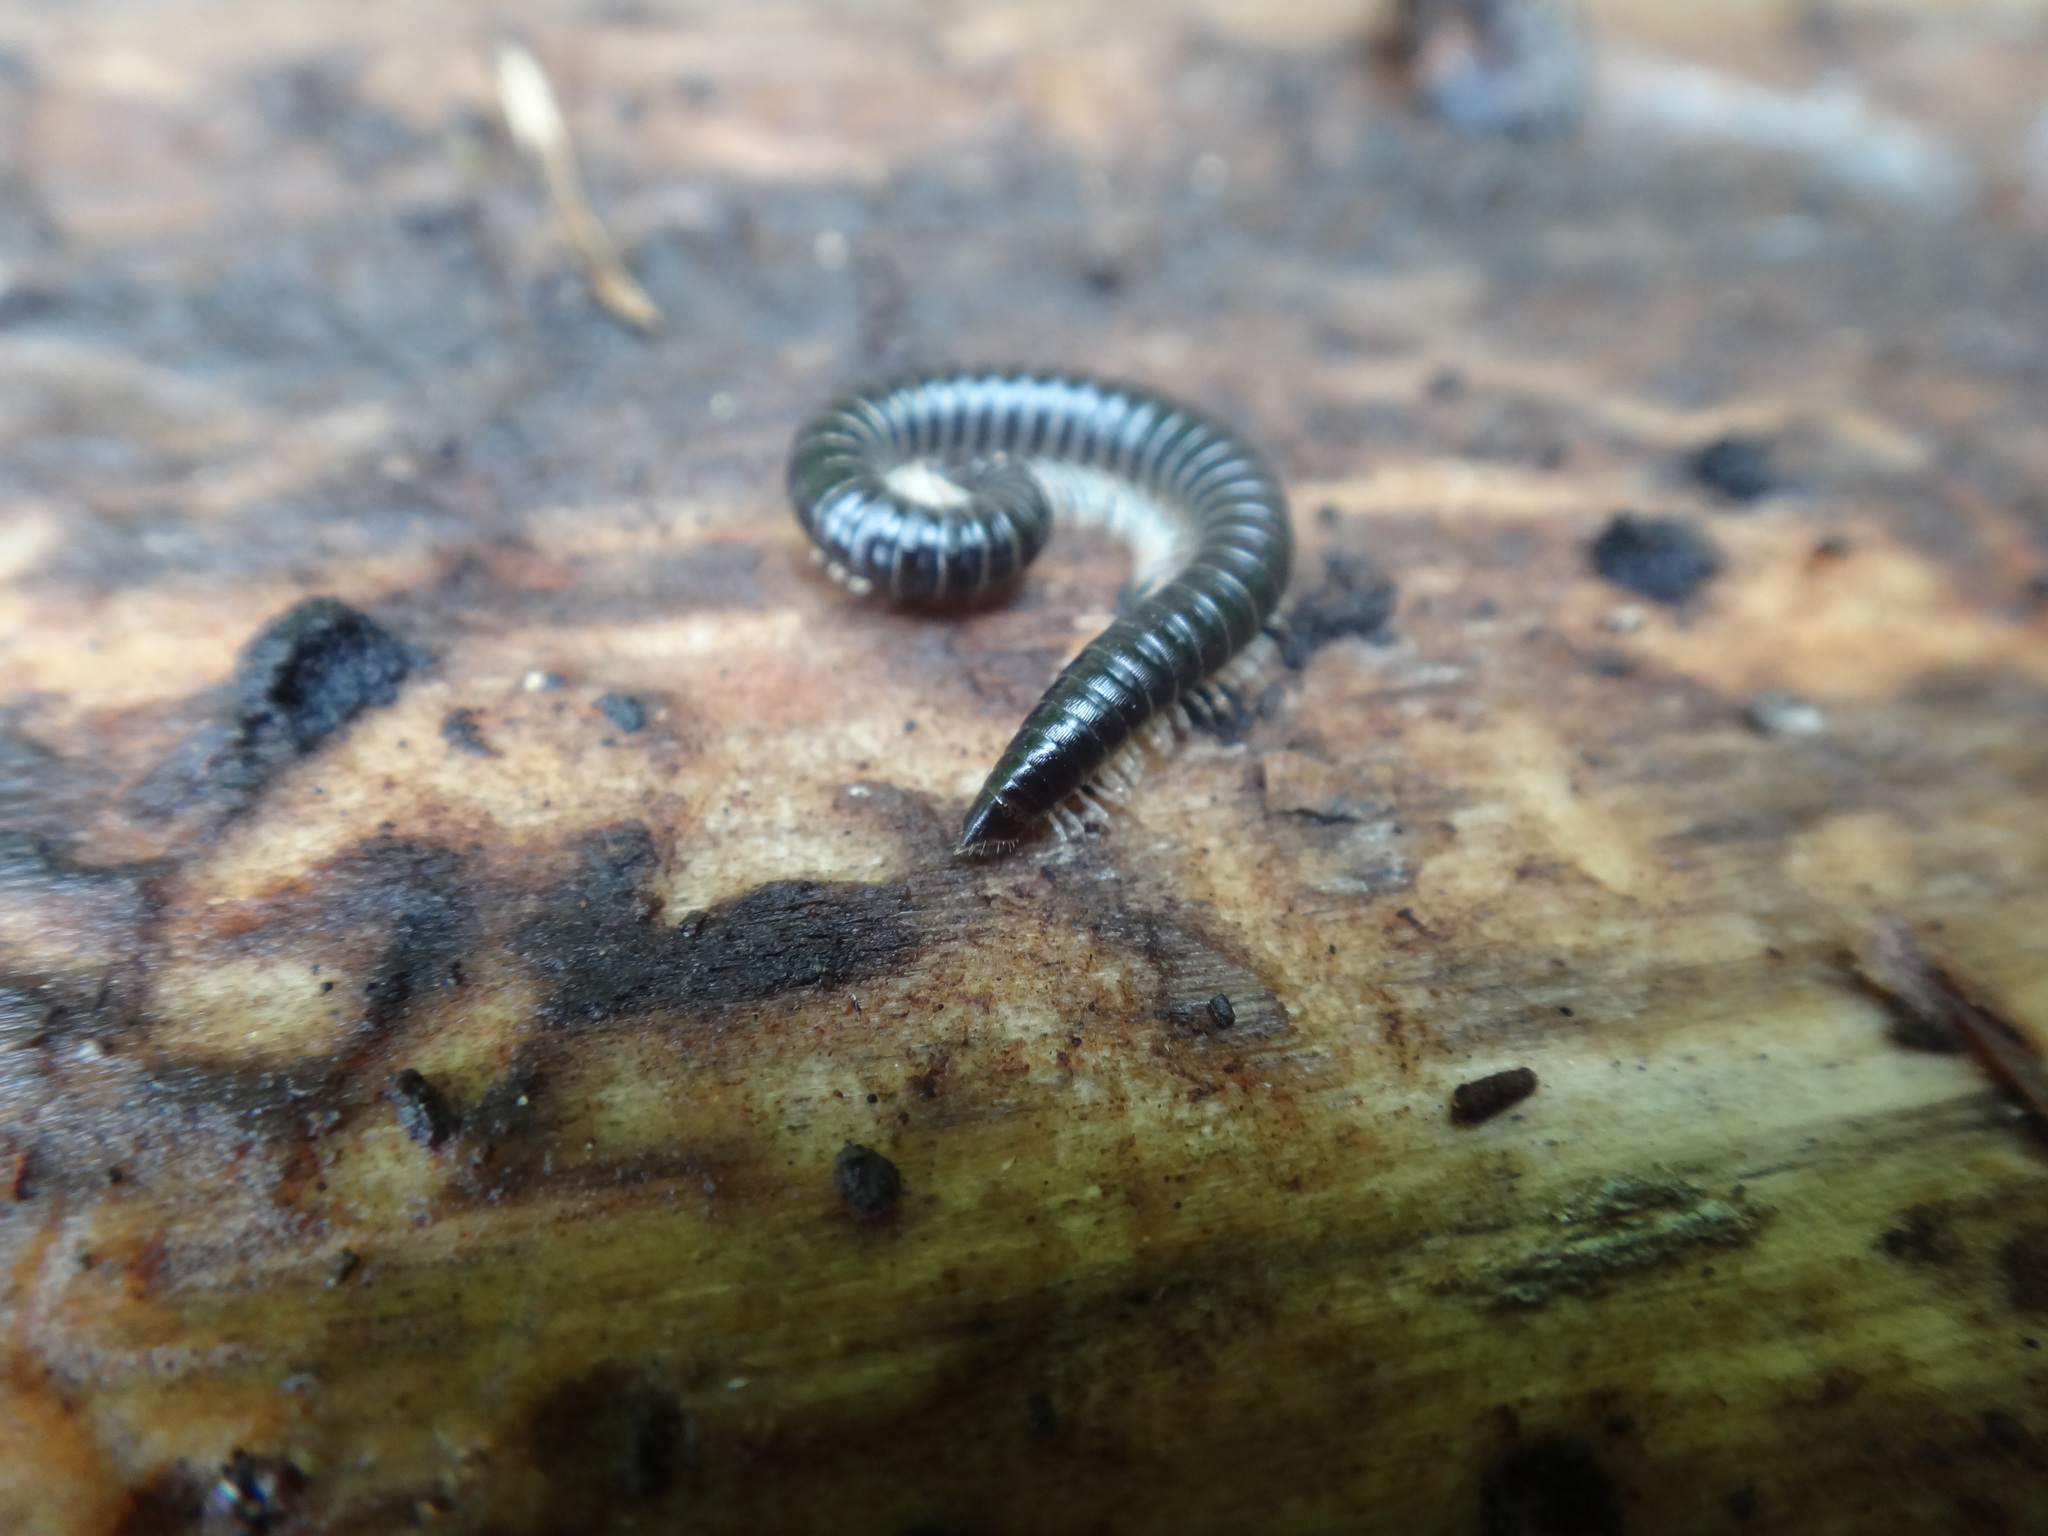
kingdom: Animalia
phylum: Arthropoda
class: Diplopoda
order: Julida
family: Julidae
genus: Tachypodoiulus
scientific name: Tachypodoiulus niger
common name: White-legged snake millipede
